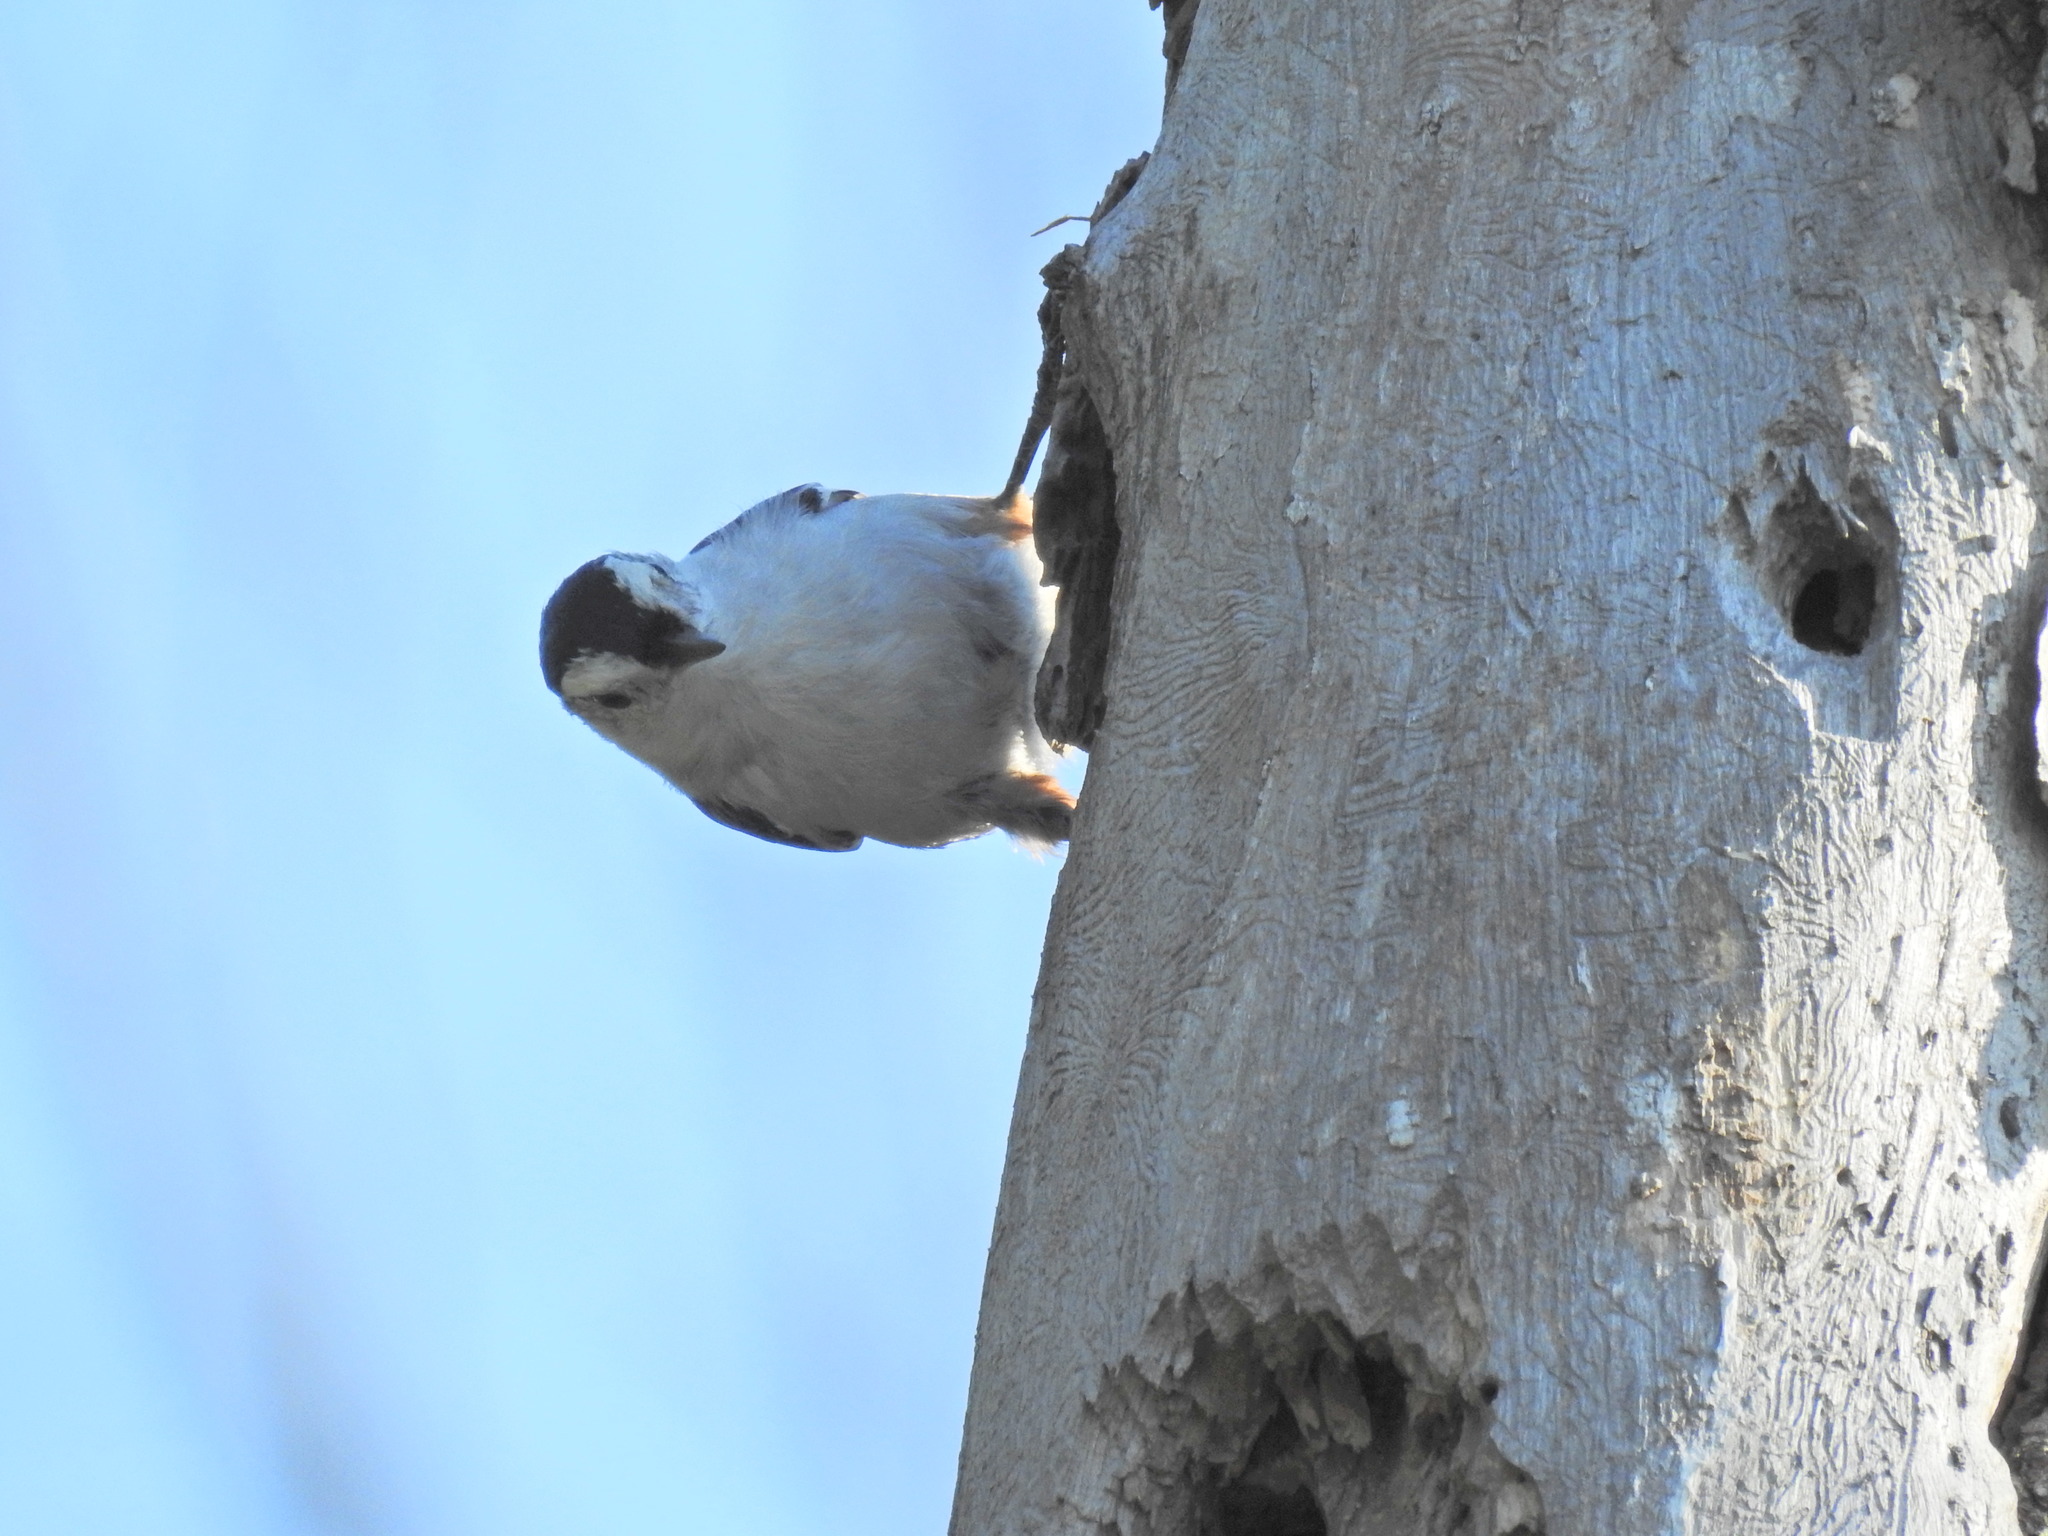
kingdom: Animalia
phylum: Chordata
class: Aves
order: Passeriformes
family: Sittidae
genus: Sitta
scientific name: Sitta carolinensis
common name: White-breasted nuthatch
